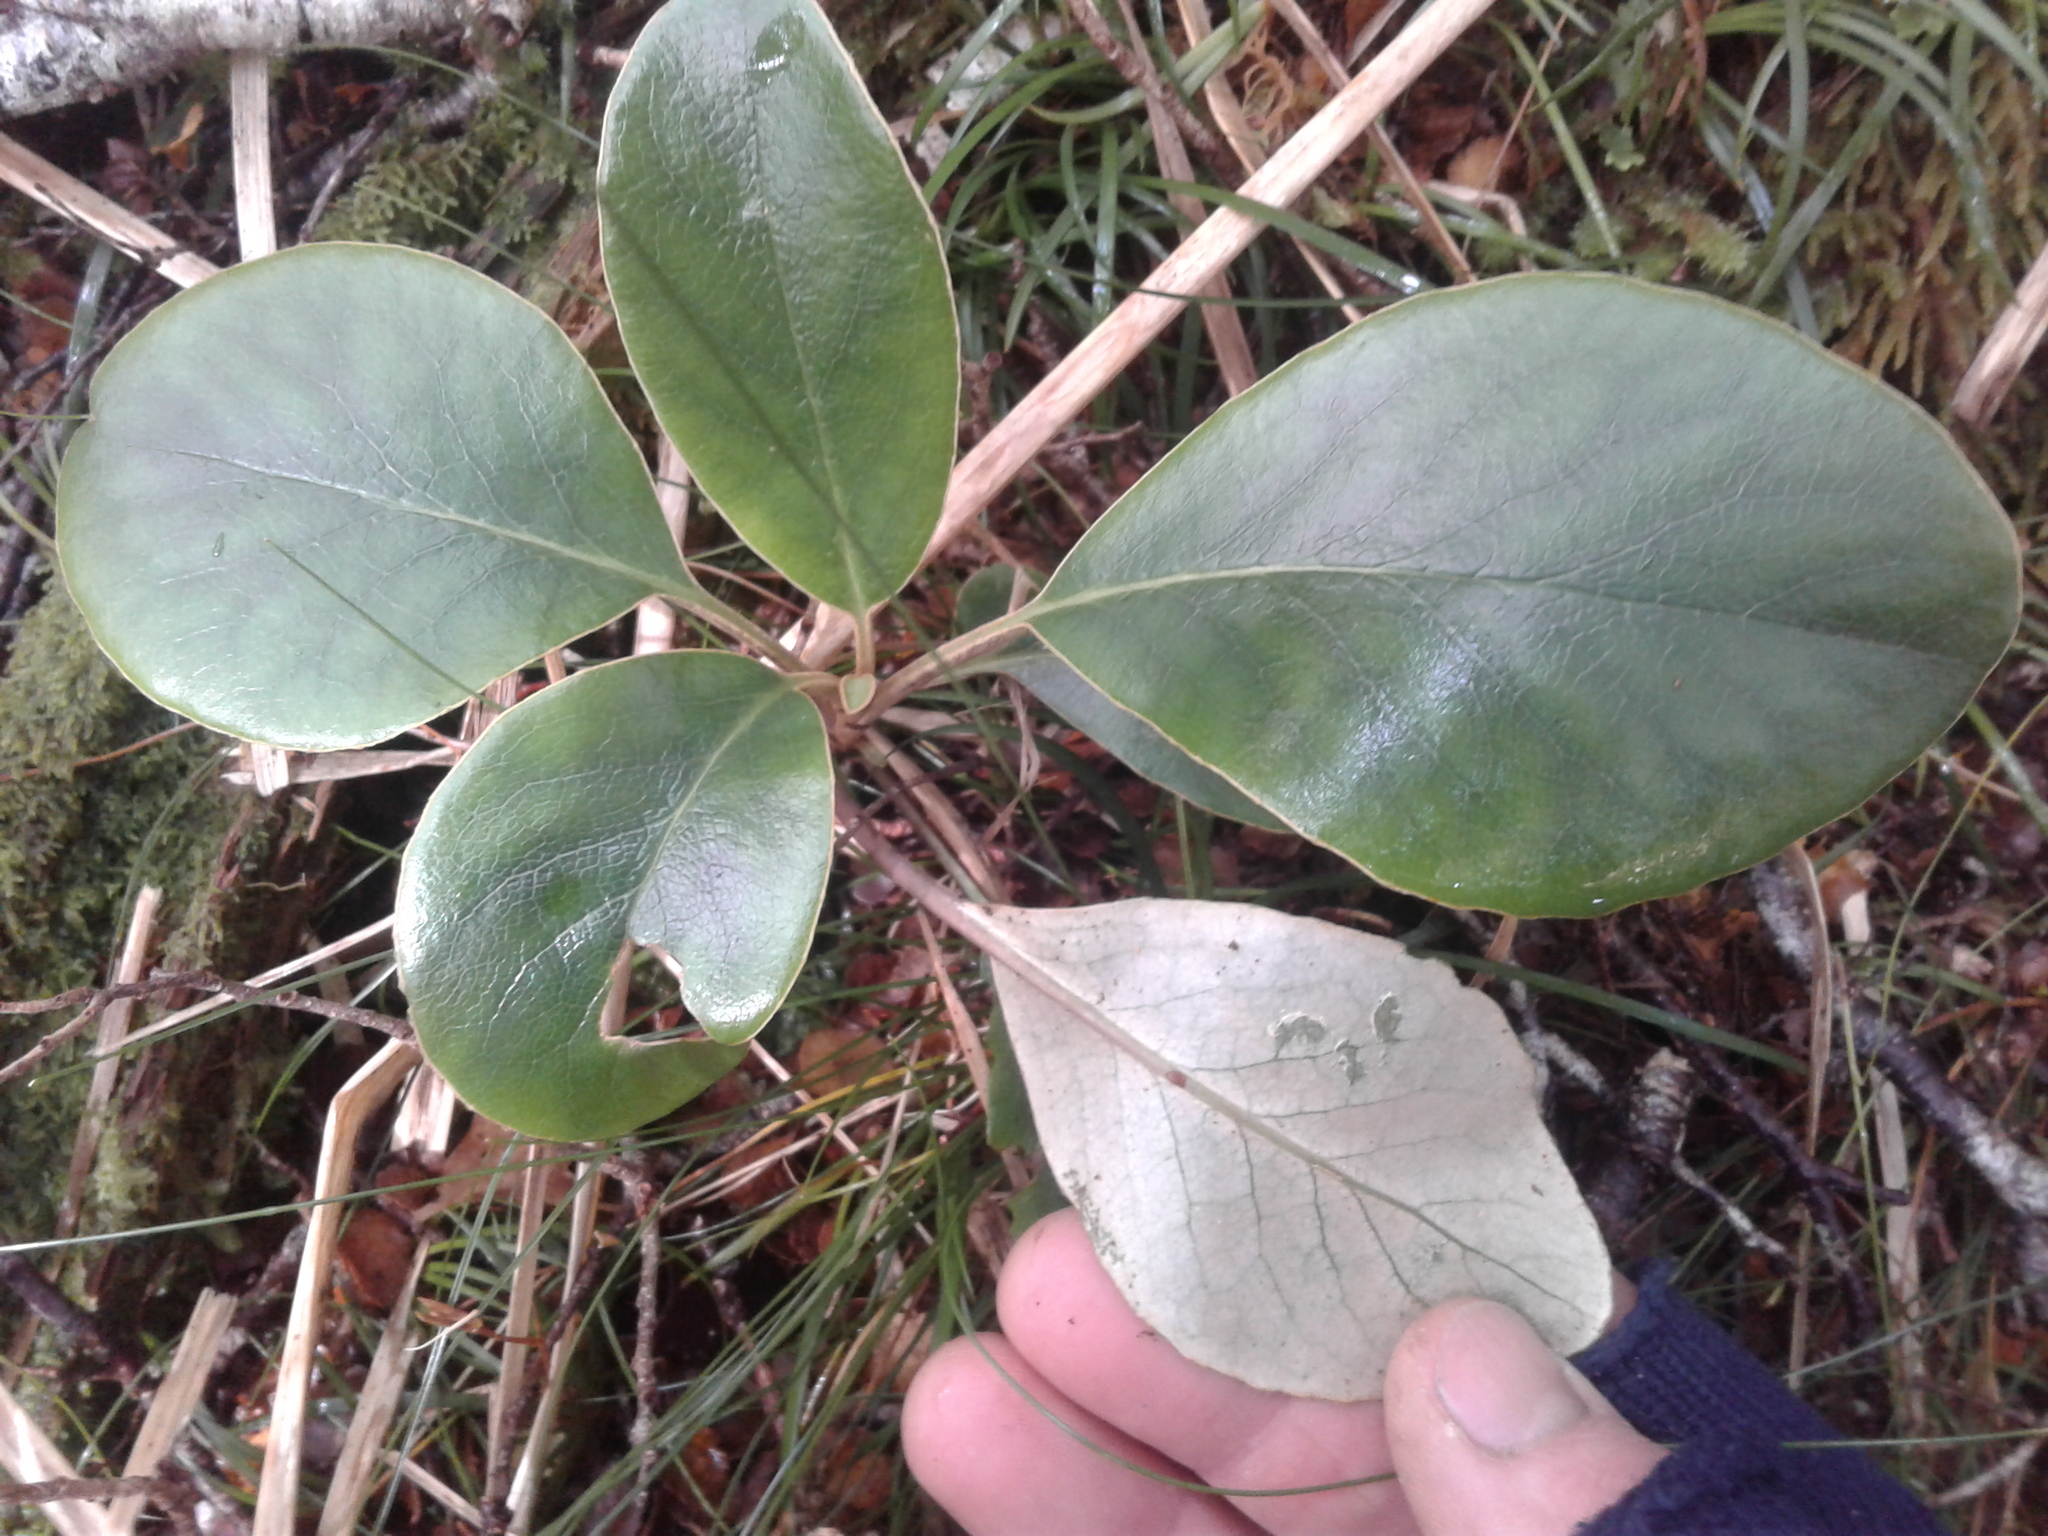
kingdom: Plantae
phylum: Tracheophyta
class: Magnoliopsida
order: Asterales
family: Asteraceae
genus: Brachyglottis
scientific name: Brachyglottis buchananii
